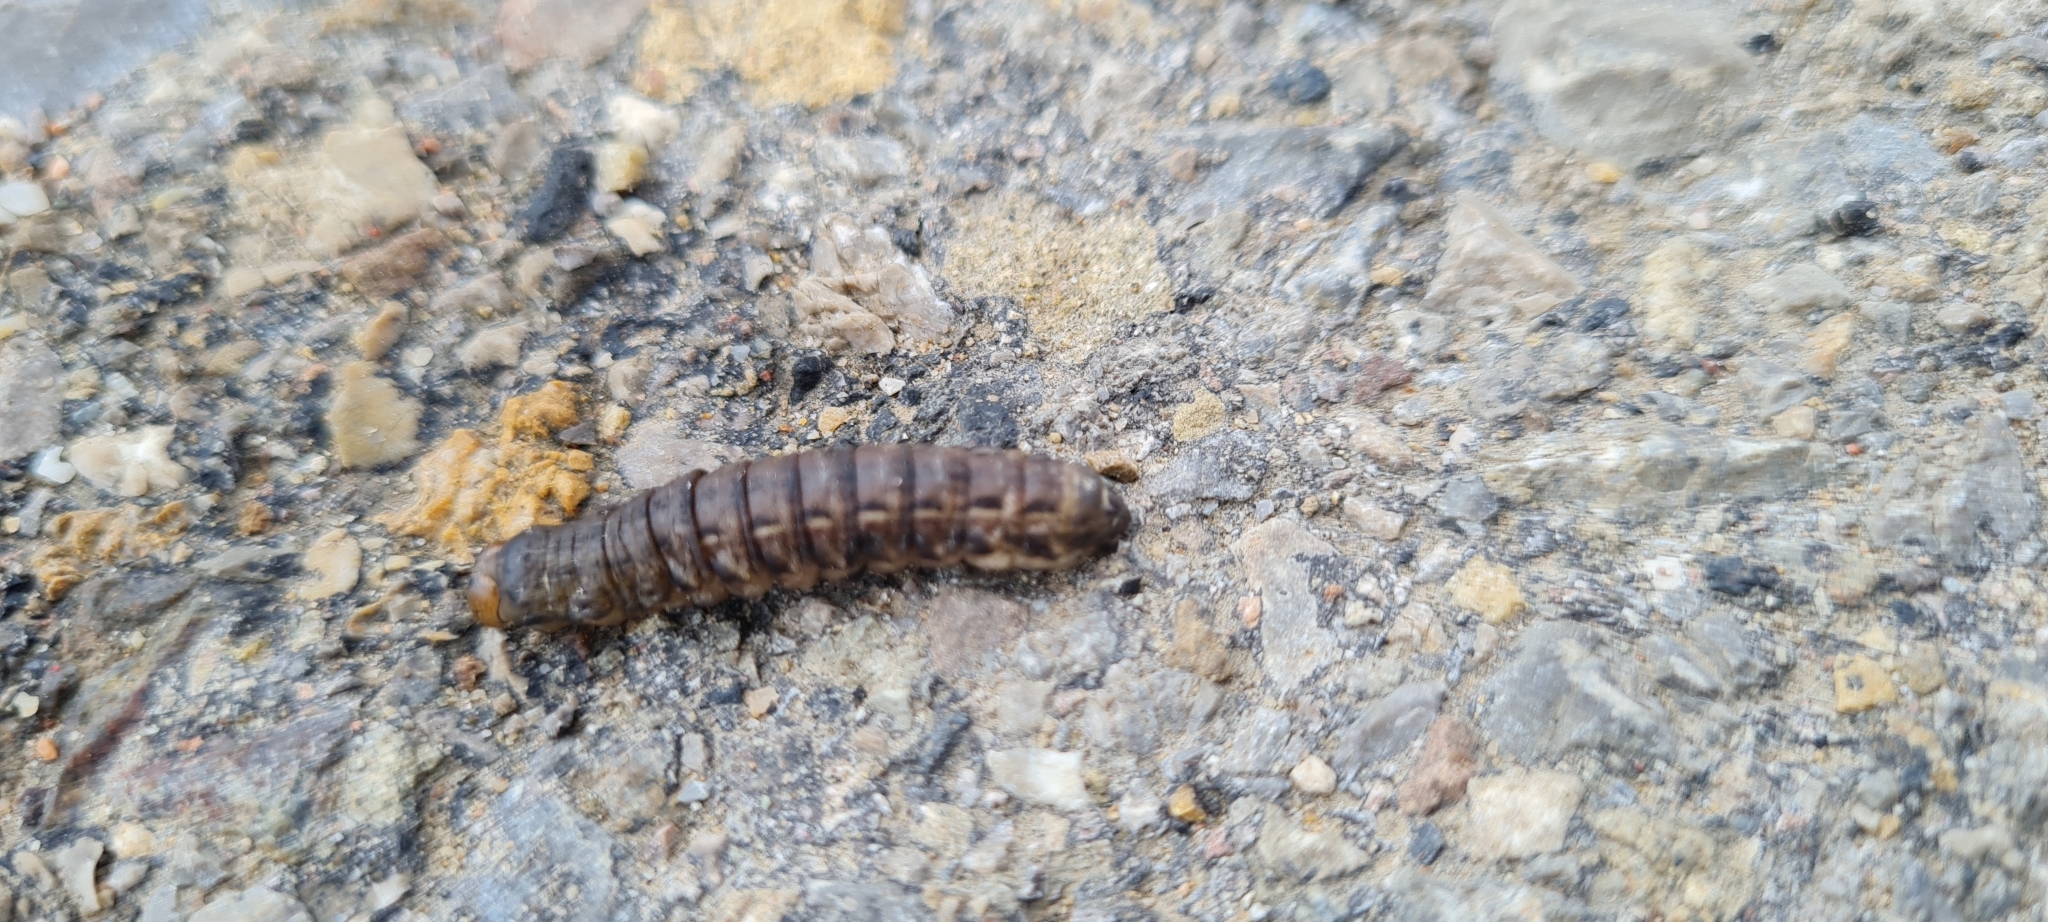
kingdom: Animalia
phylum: Arthropoda
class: Insecta
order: Lepidoptera
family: Noctuidae
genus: Noctua
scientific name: Noctua pronuba
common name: Large yellow underwing
